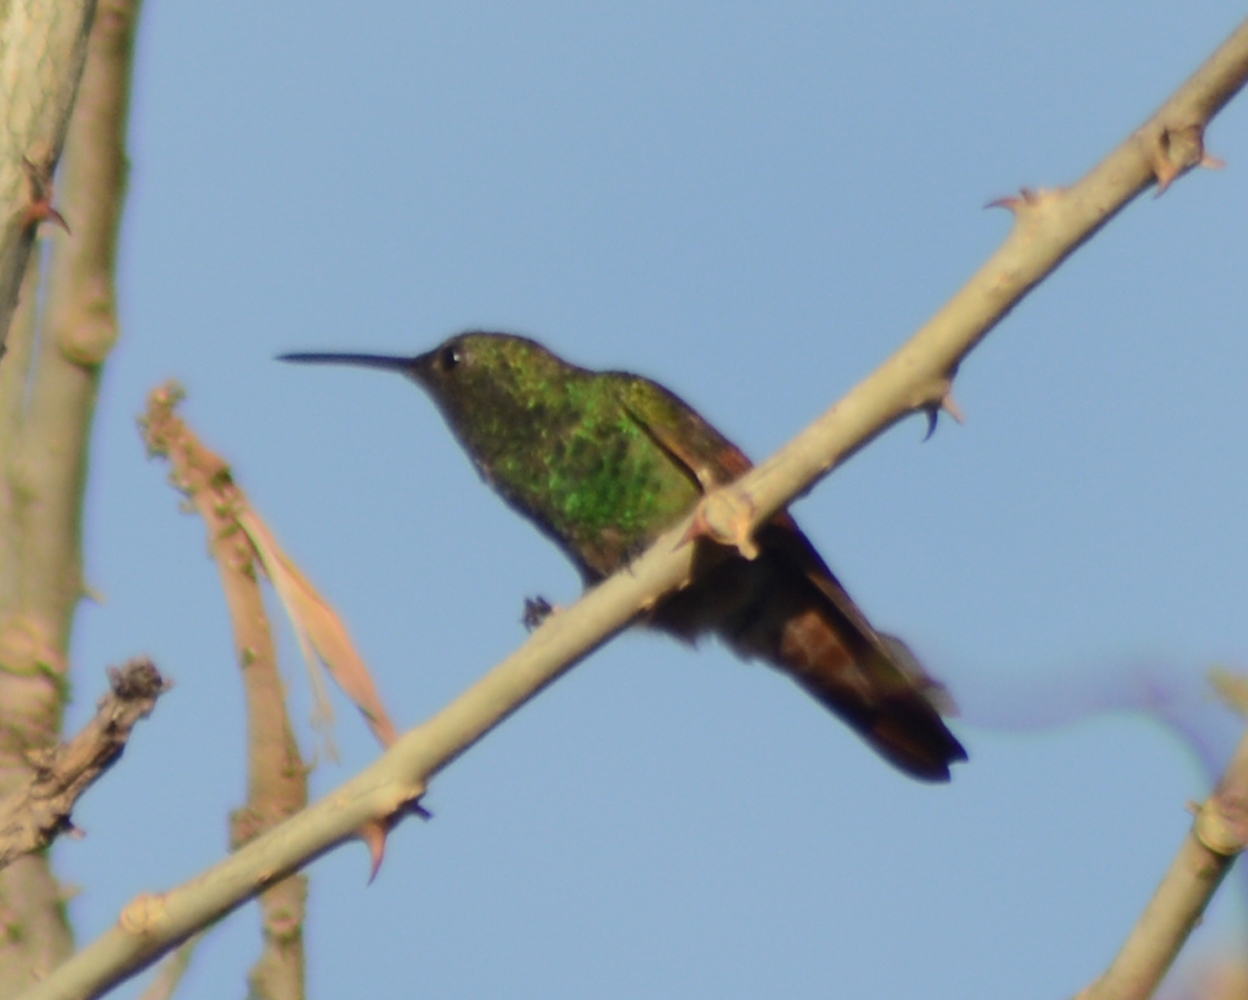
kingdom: Animalia
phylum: Chordata
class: Aves
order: Apodiformes
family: Trochilidae
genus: Saucerottia
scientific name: Saucerottia beryllina
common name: Berylline hummingbird
